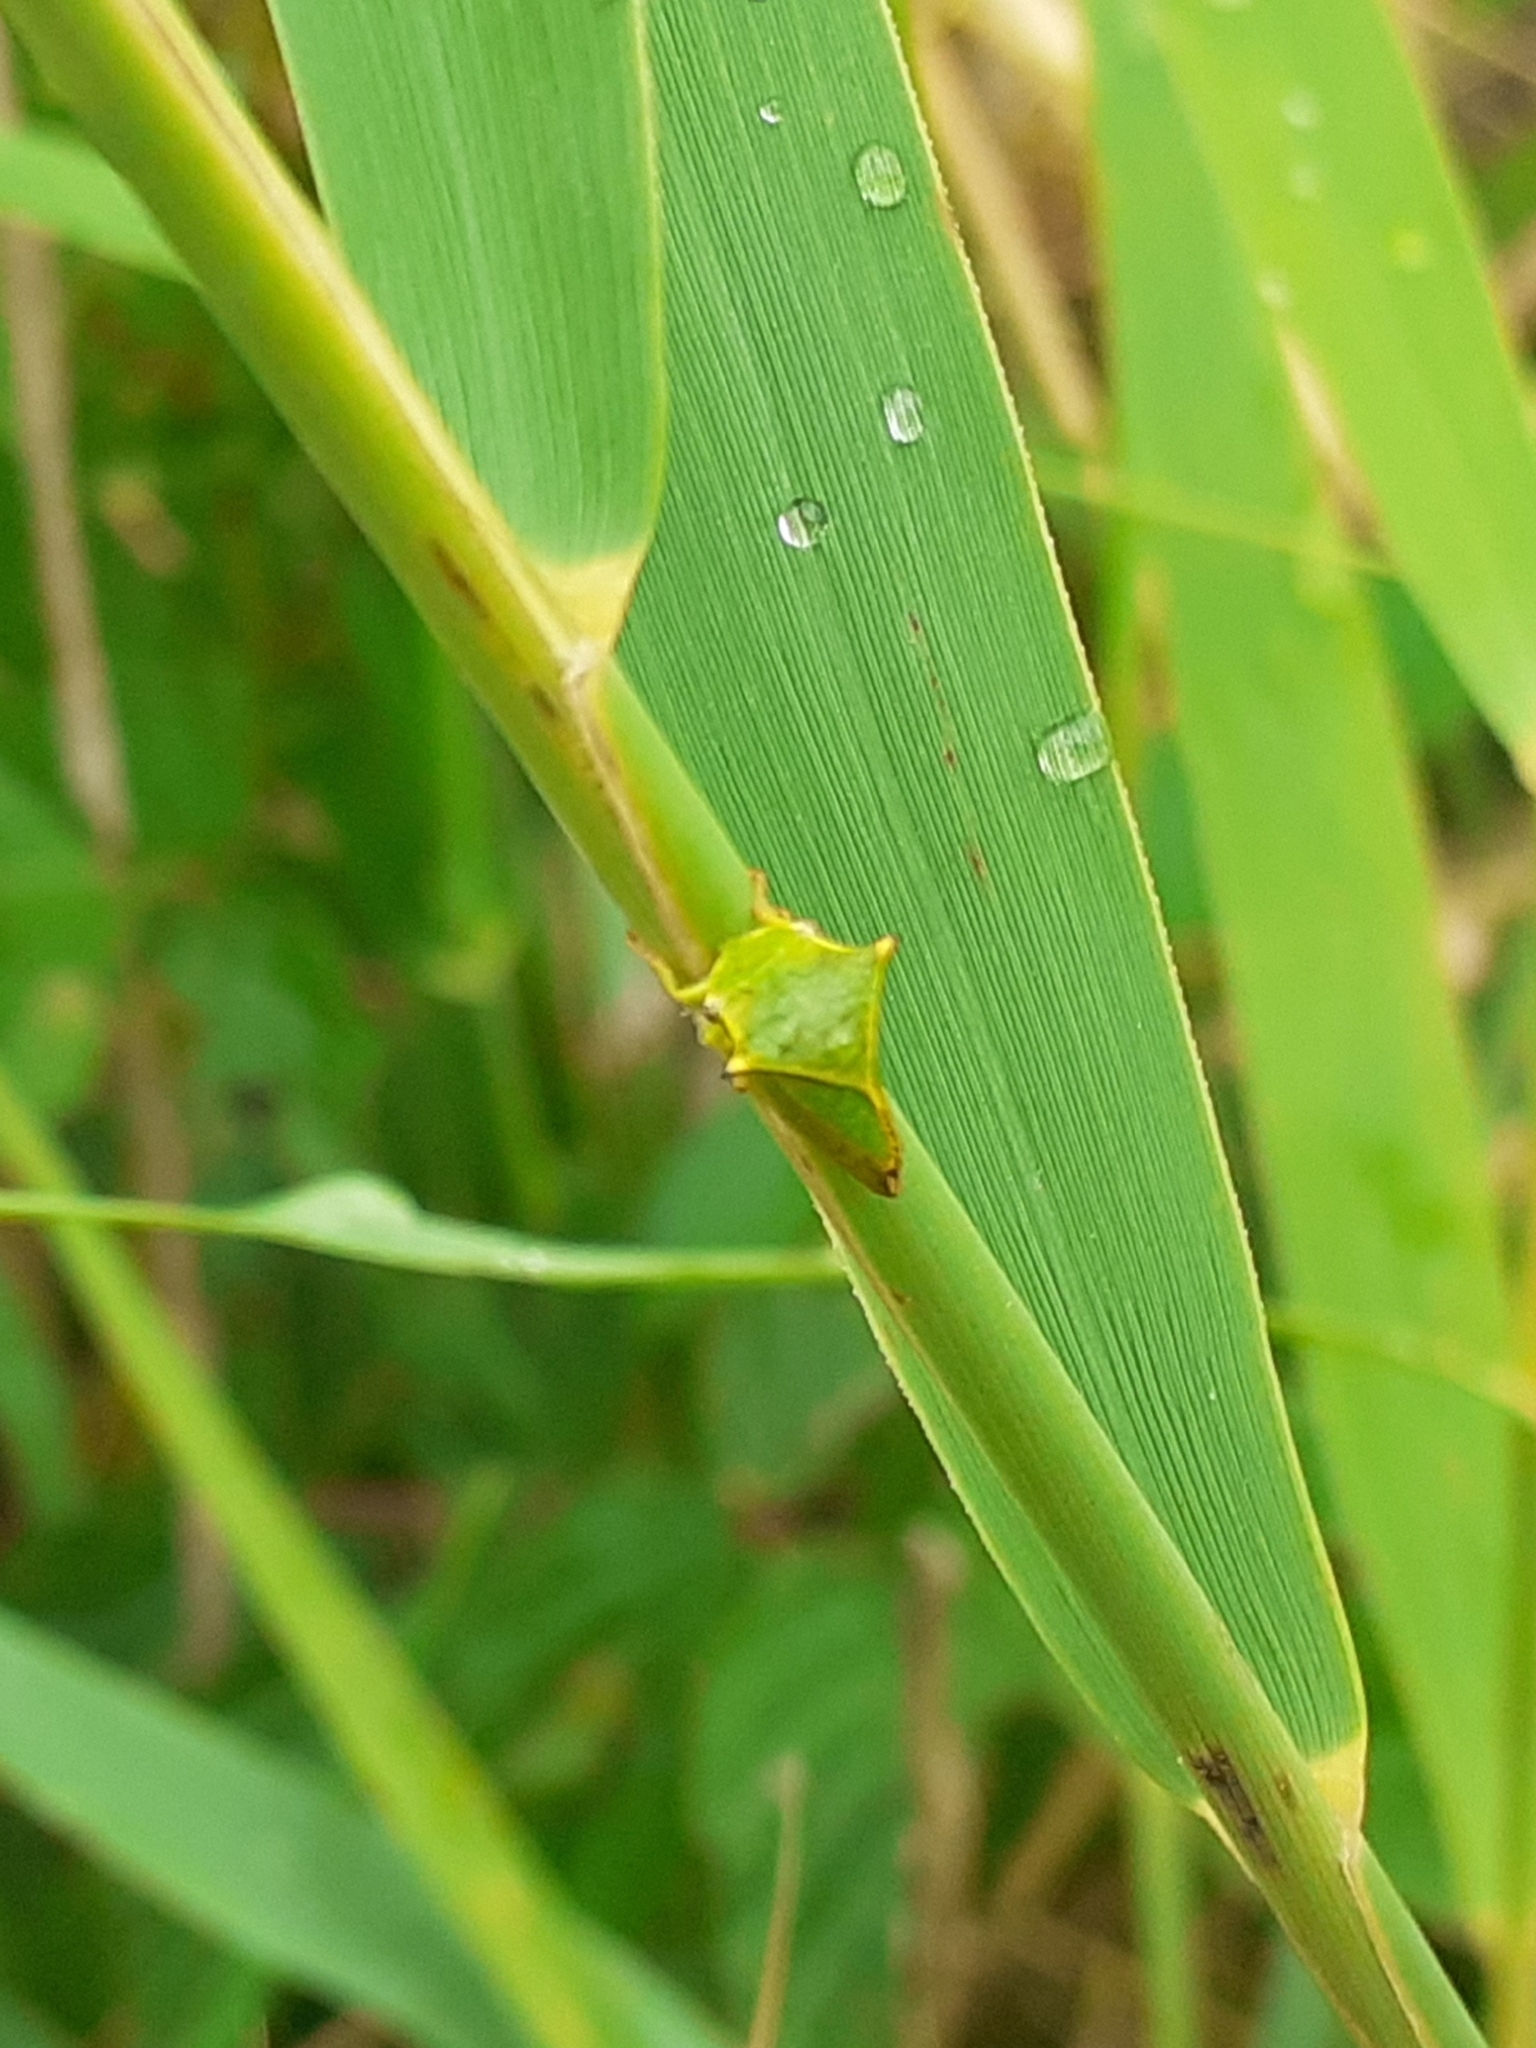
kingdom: Animalia
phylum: Arthropoda
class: Insecta
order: Hemiptera
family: Membracidae
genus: Stictocephala
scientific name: Stictocephala bisonia
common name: American buffalo treehopper
